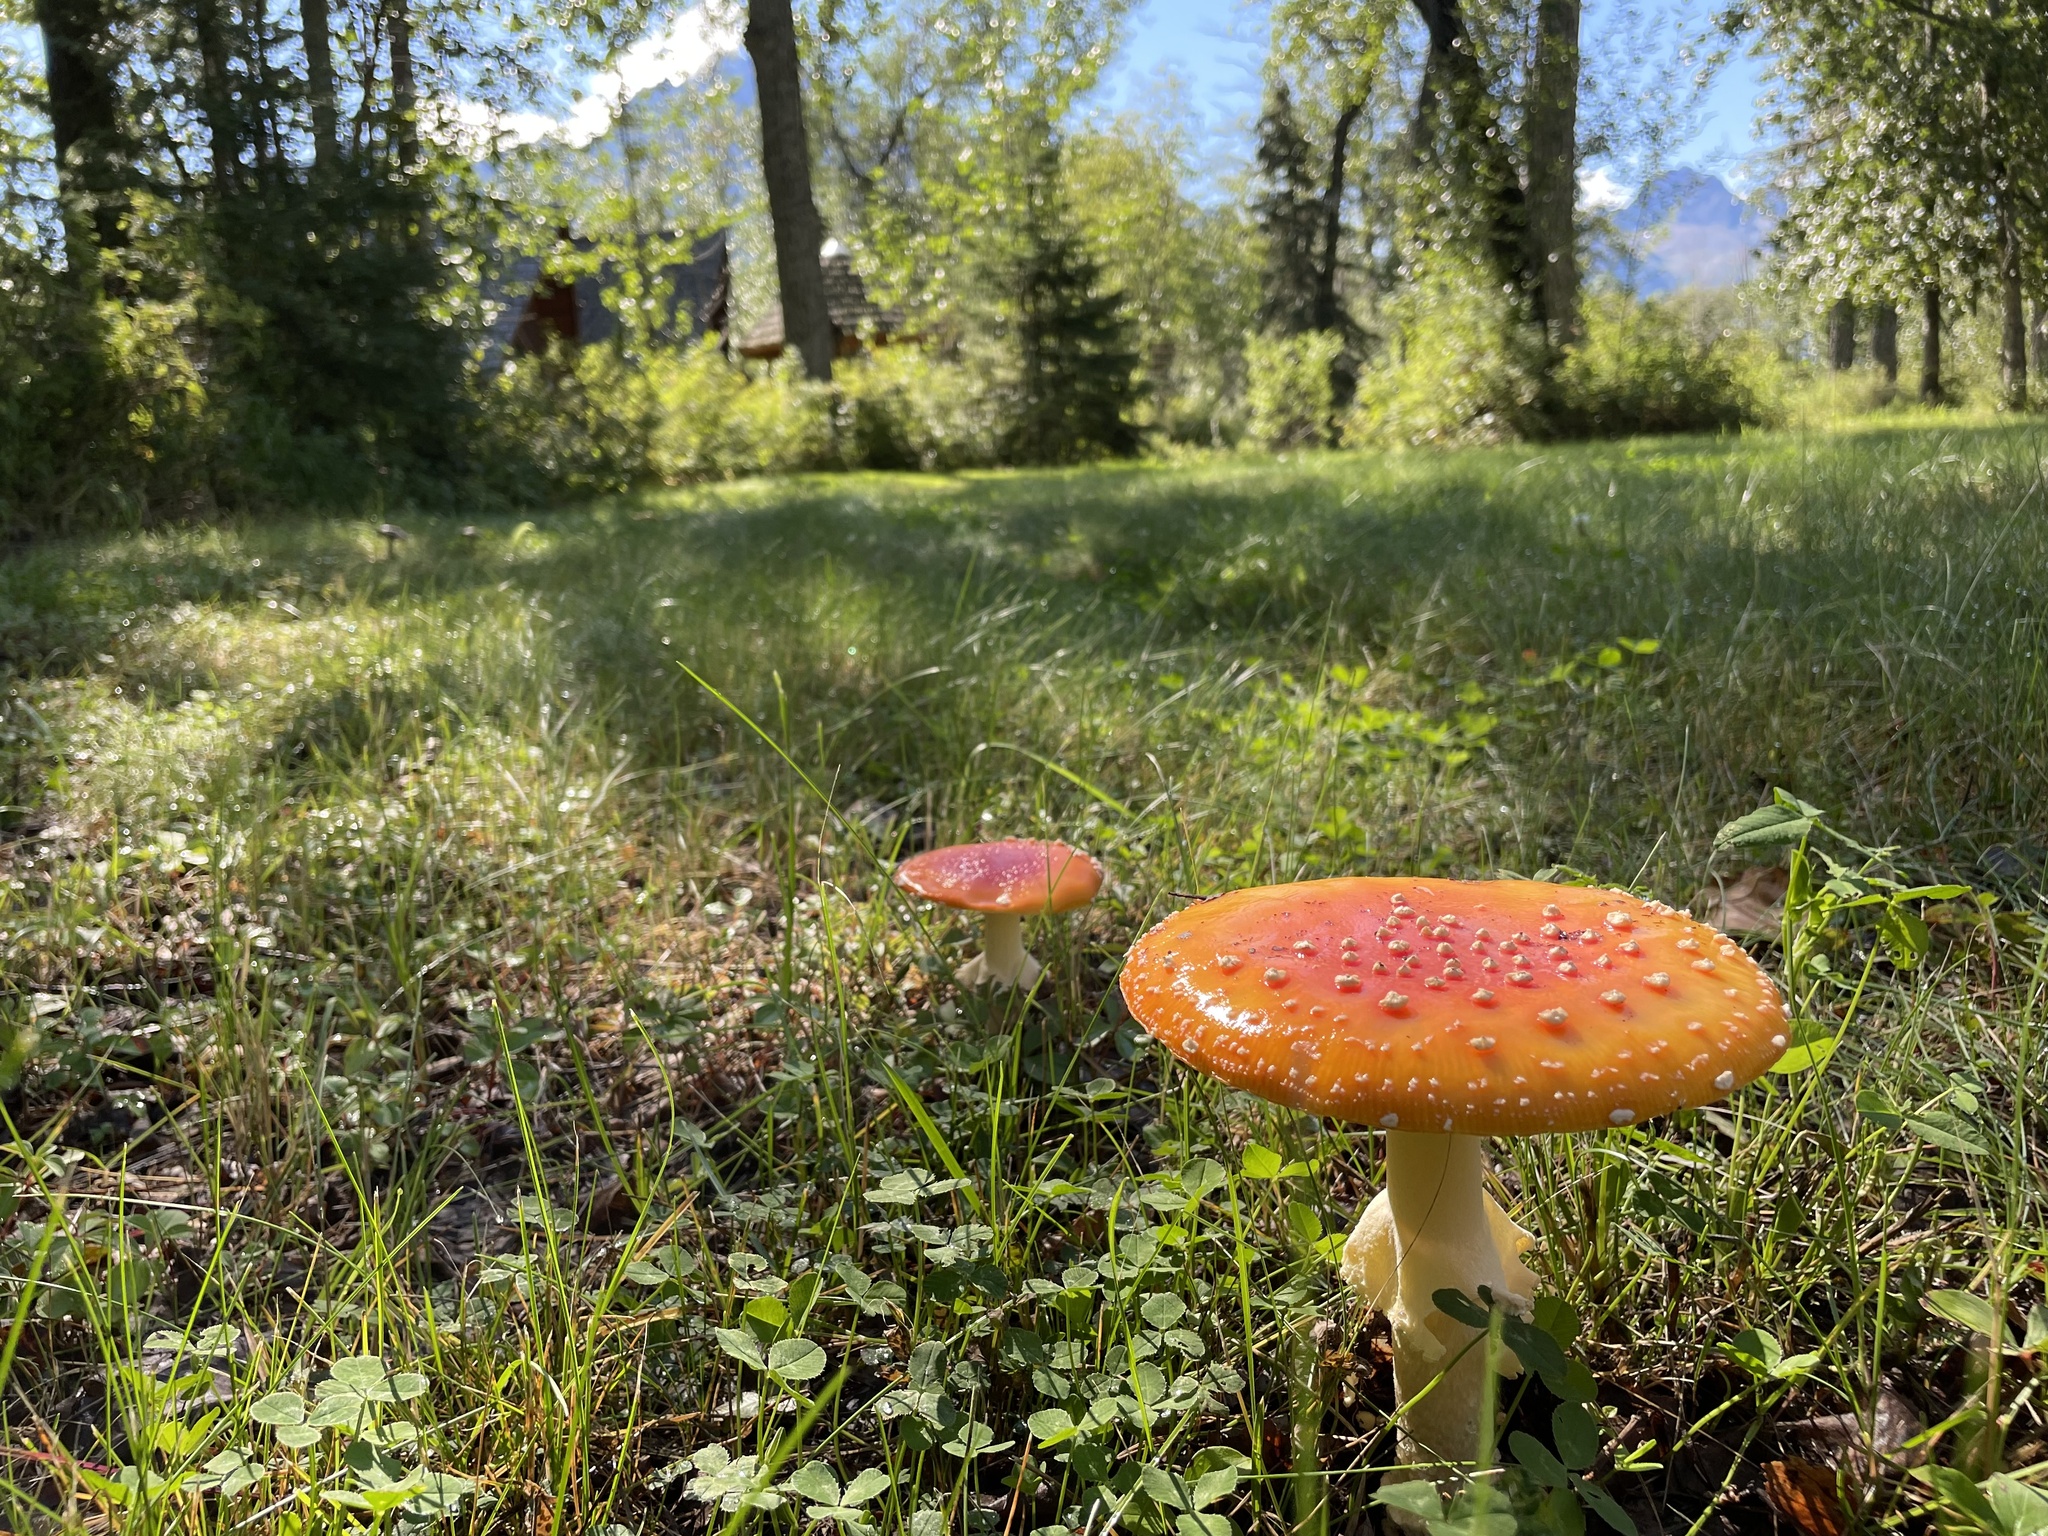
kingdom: Fungi
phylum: Basidiomycota
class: Agaricomycetes
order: Agaricales
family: Amanitaceae
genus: Amanita
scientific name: Amanita muscaria
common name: Fly agaric
